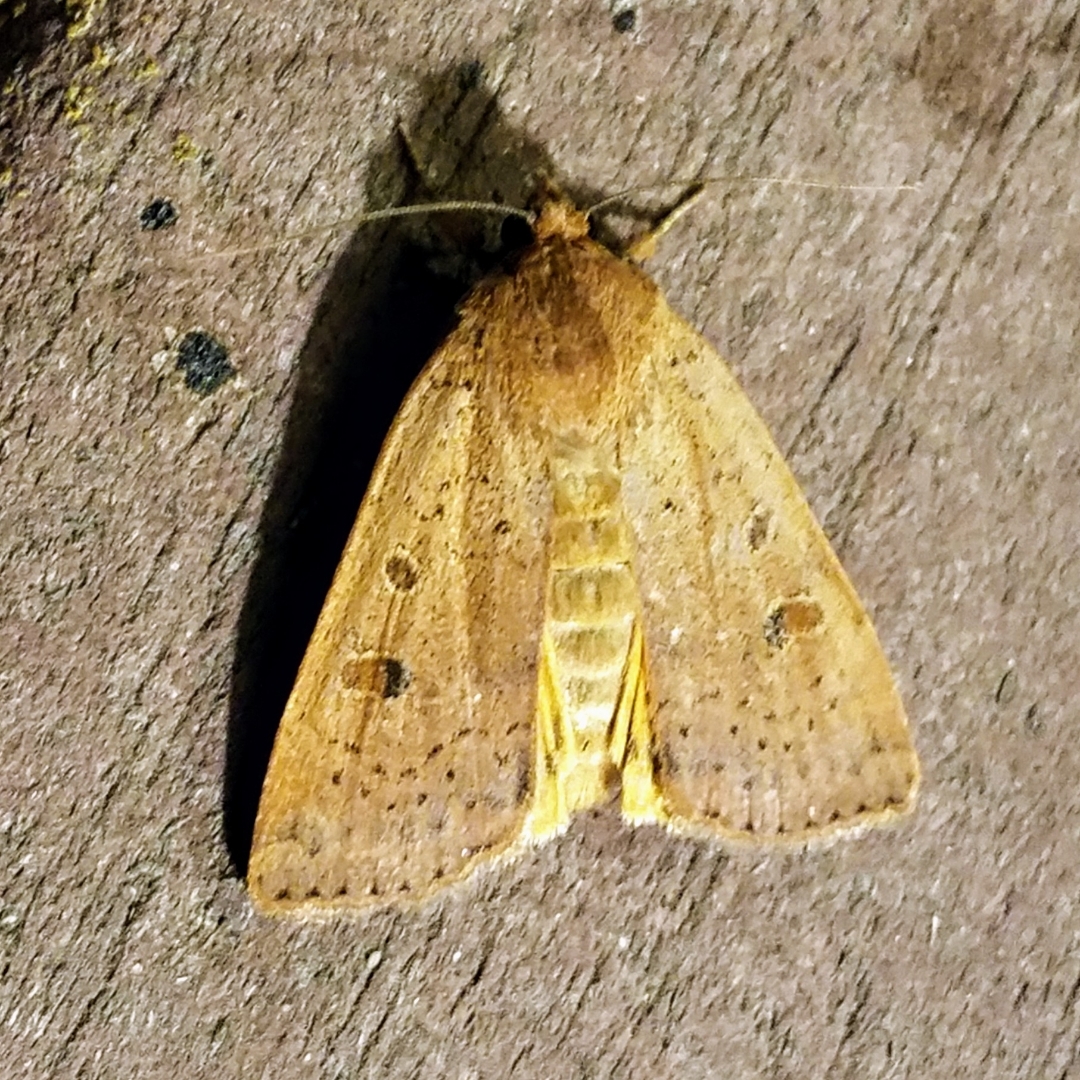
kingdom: Animalia
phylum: Arthropoda
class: Insecta
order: Lepidoptera
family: Noctuidae
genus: Noctua
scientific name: Noctua comes
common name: Lesser yellow underwing
